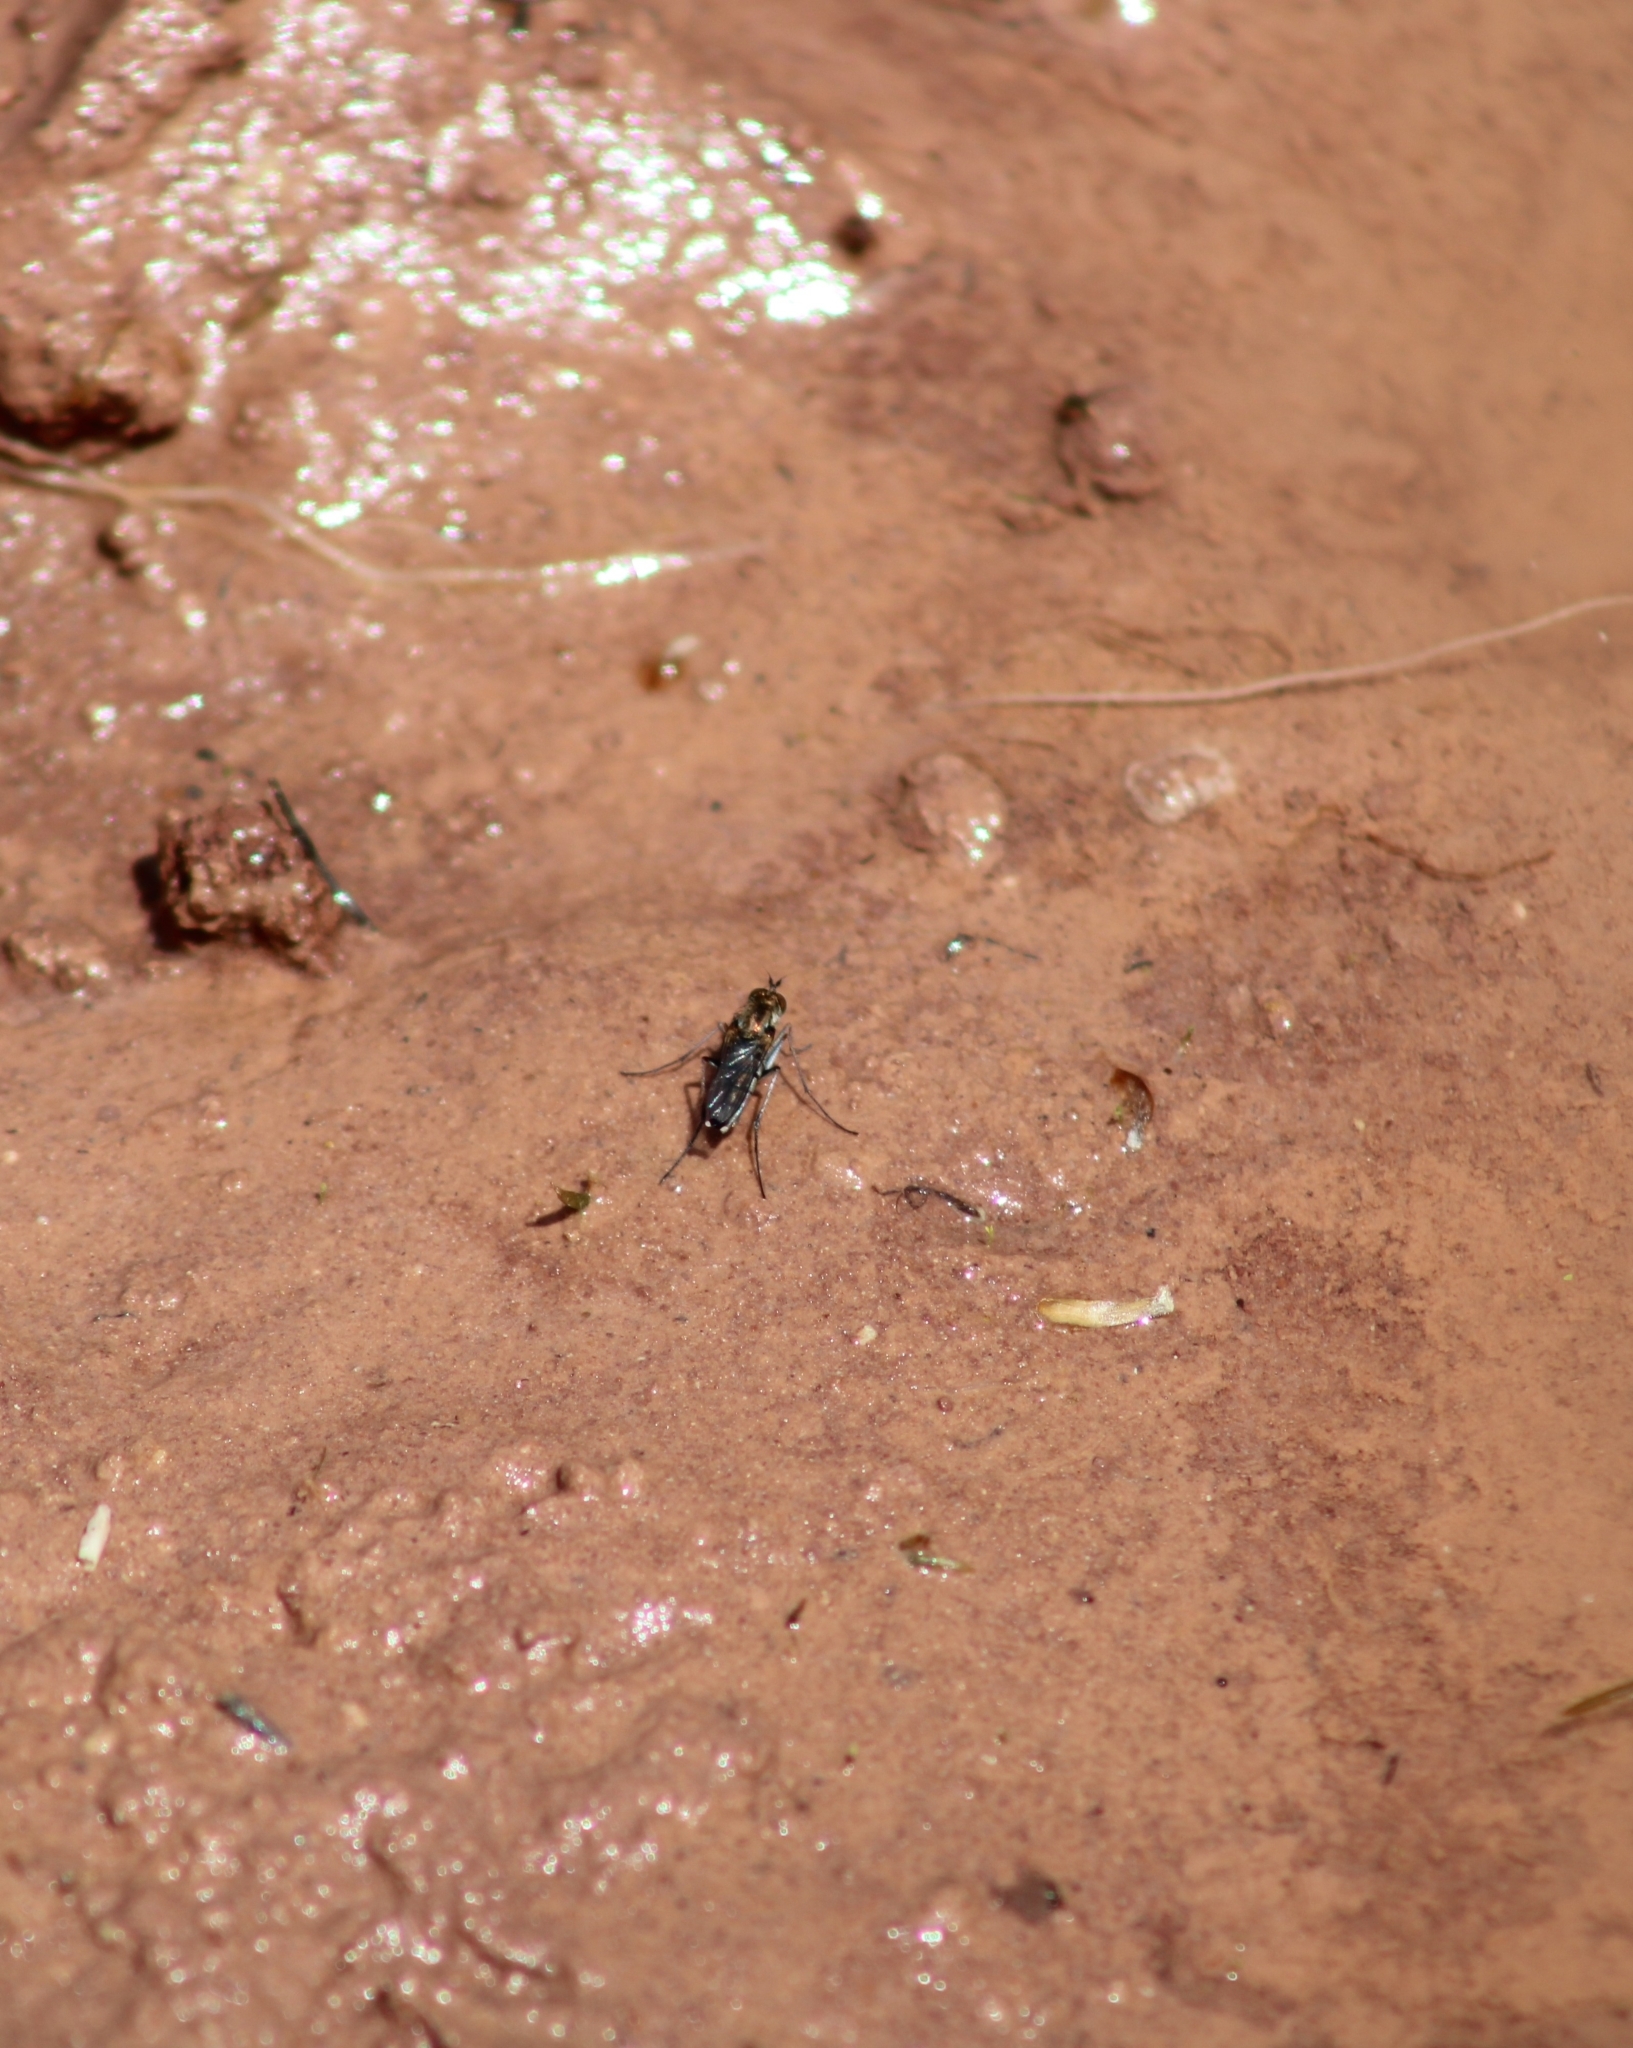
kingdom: Animalia
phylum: Arthropoda
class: Insecta
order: Diptera
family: Dolichopodidae
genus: Tachytrechus
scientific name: Tachytrechus vorax
